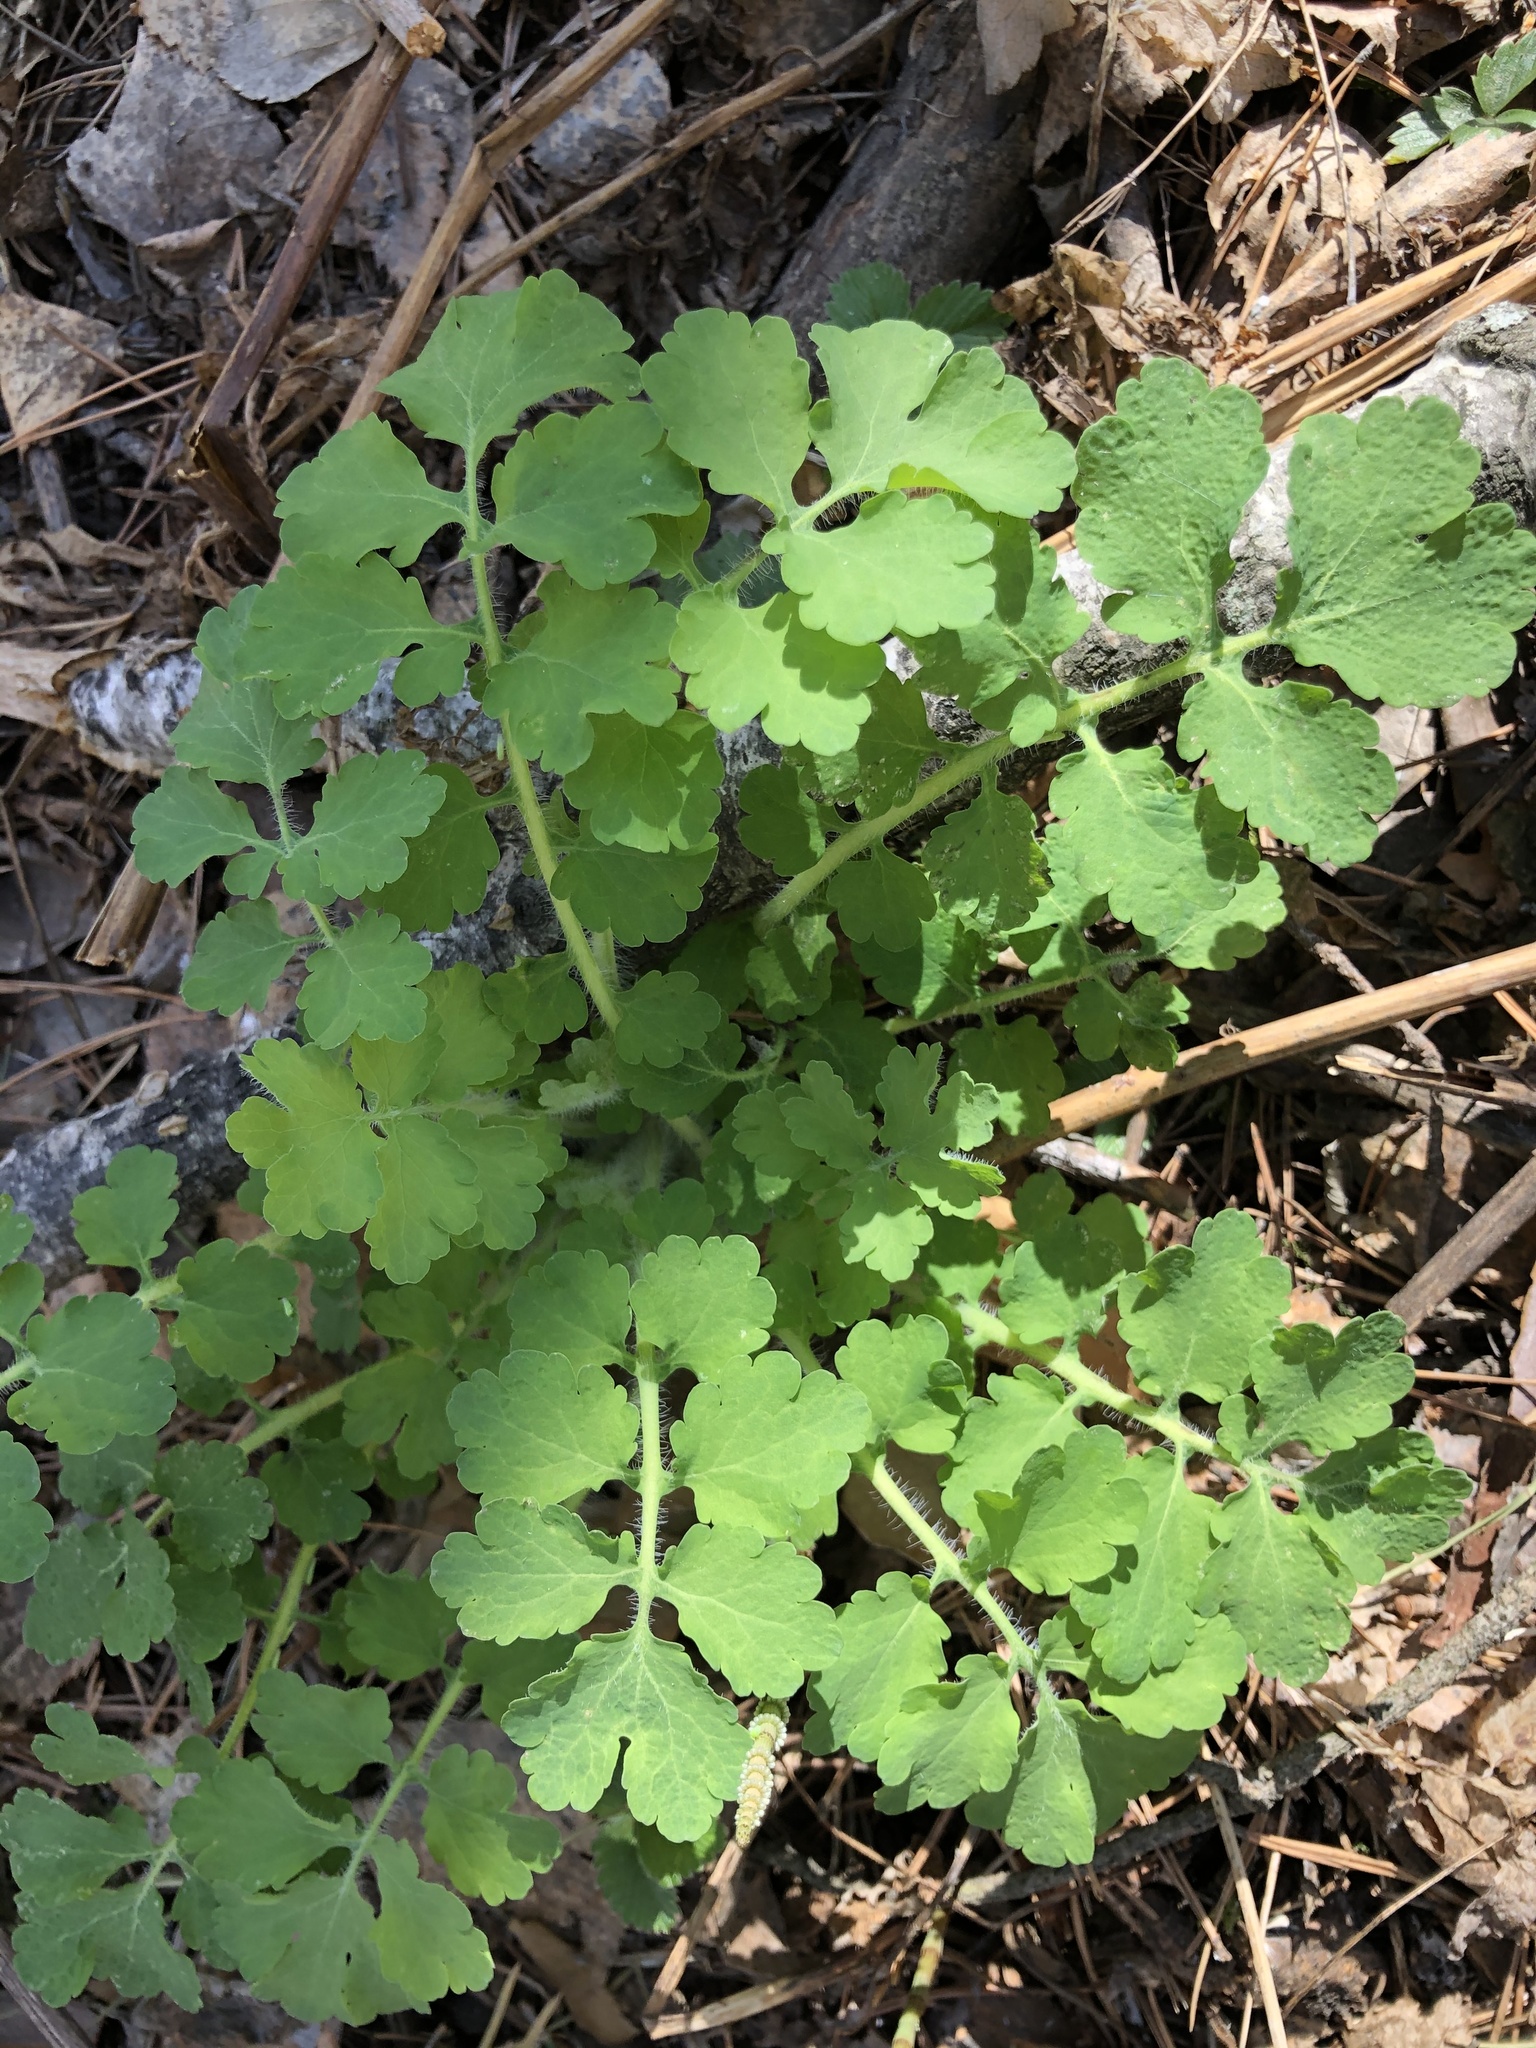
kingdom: Plantae
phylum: Tracheophyta
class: Magnoliopsida
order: Ranunculales
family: Papaveraceae
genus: Chelidonium
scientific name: Chelidonium majus
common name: Greater celandine
